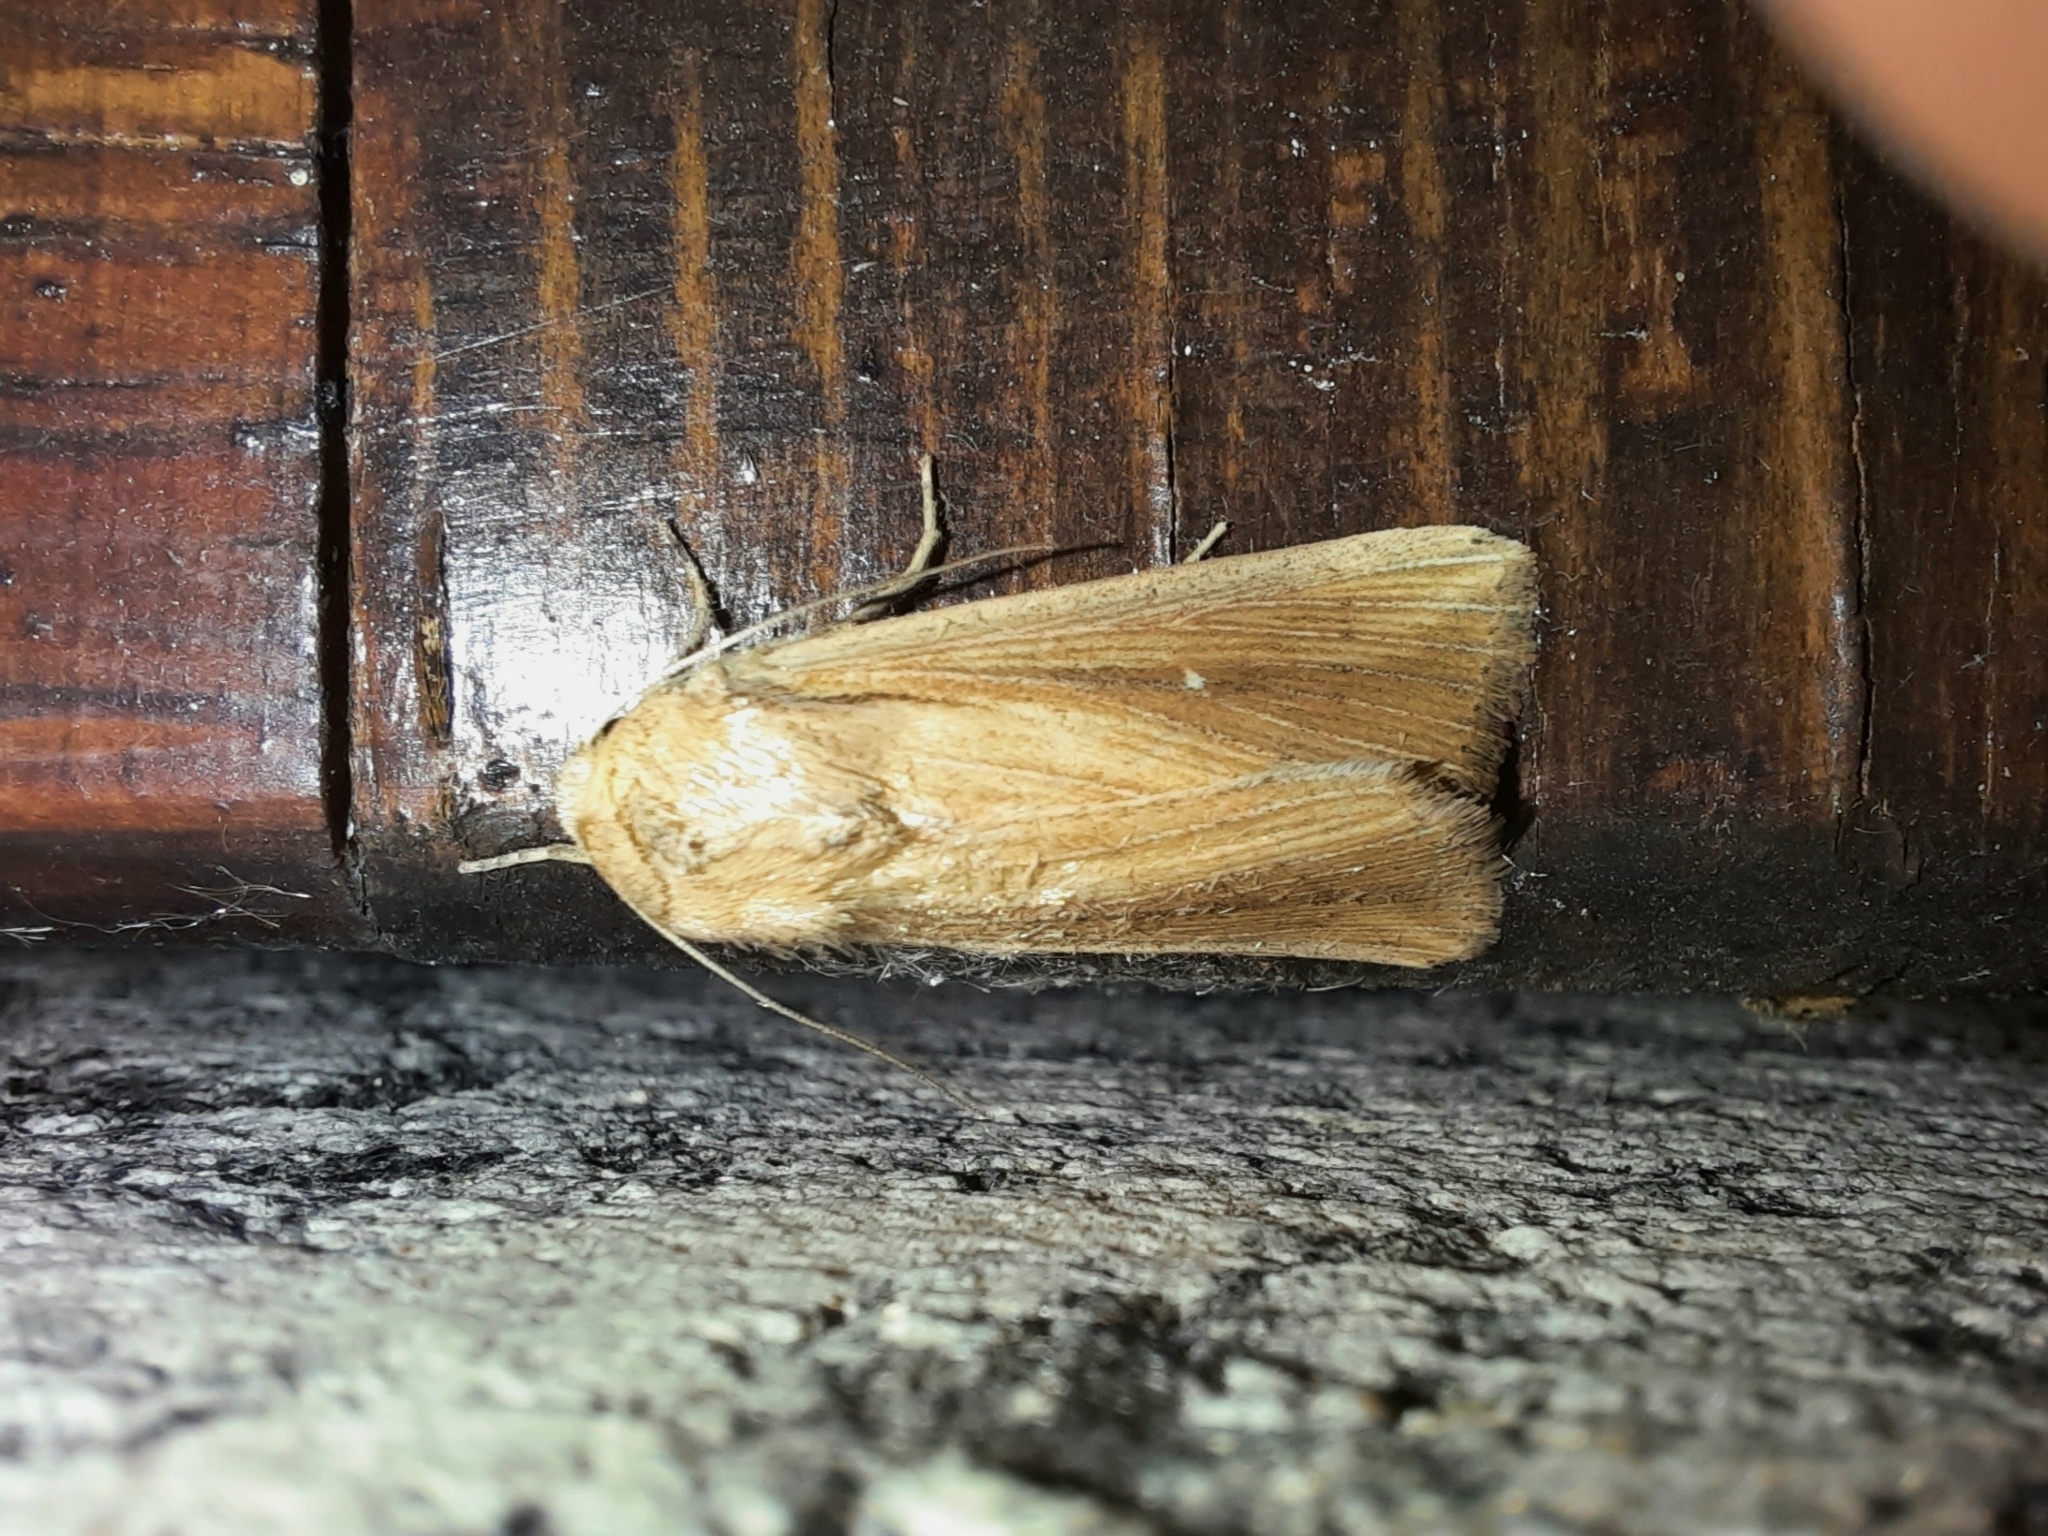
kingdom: Animalia
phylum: Arthropoda
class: Insecta
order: Lepidoptera
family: Noctuidae
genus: Leucania
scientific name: Leucania loreyi
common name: The cosmopolitan
